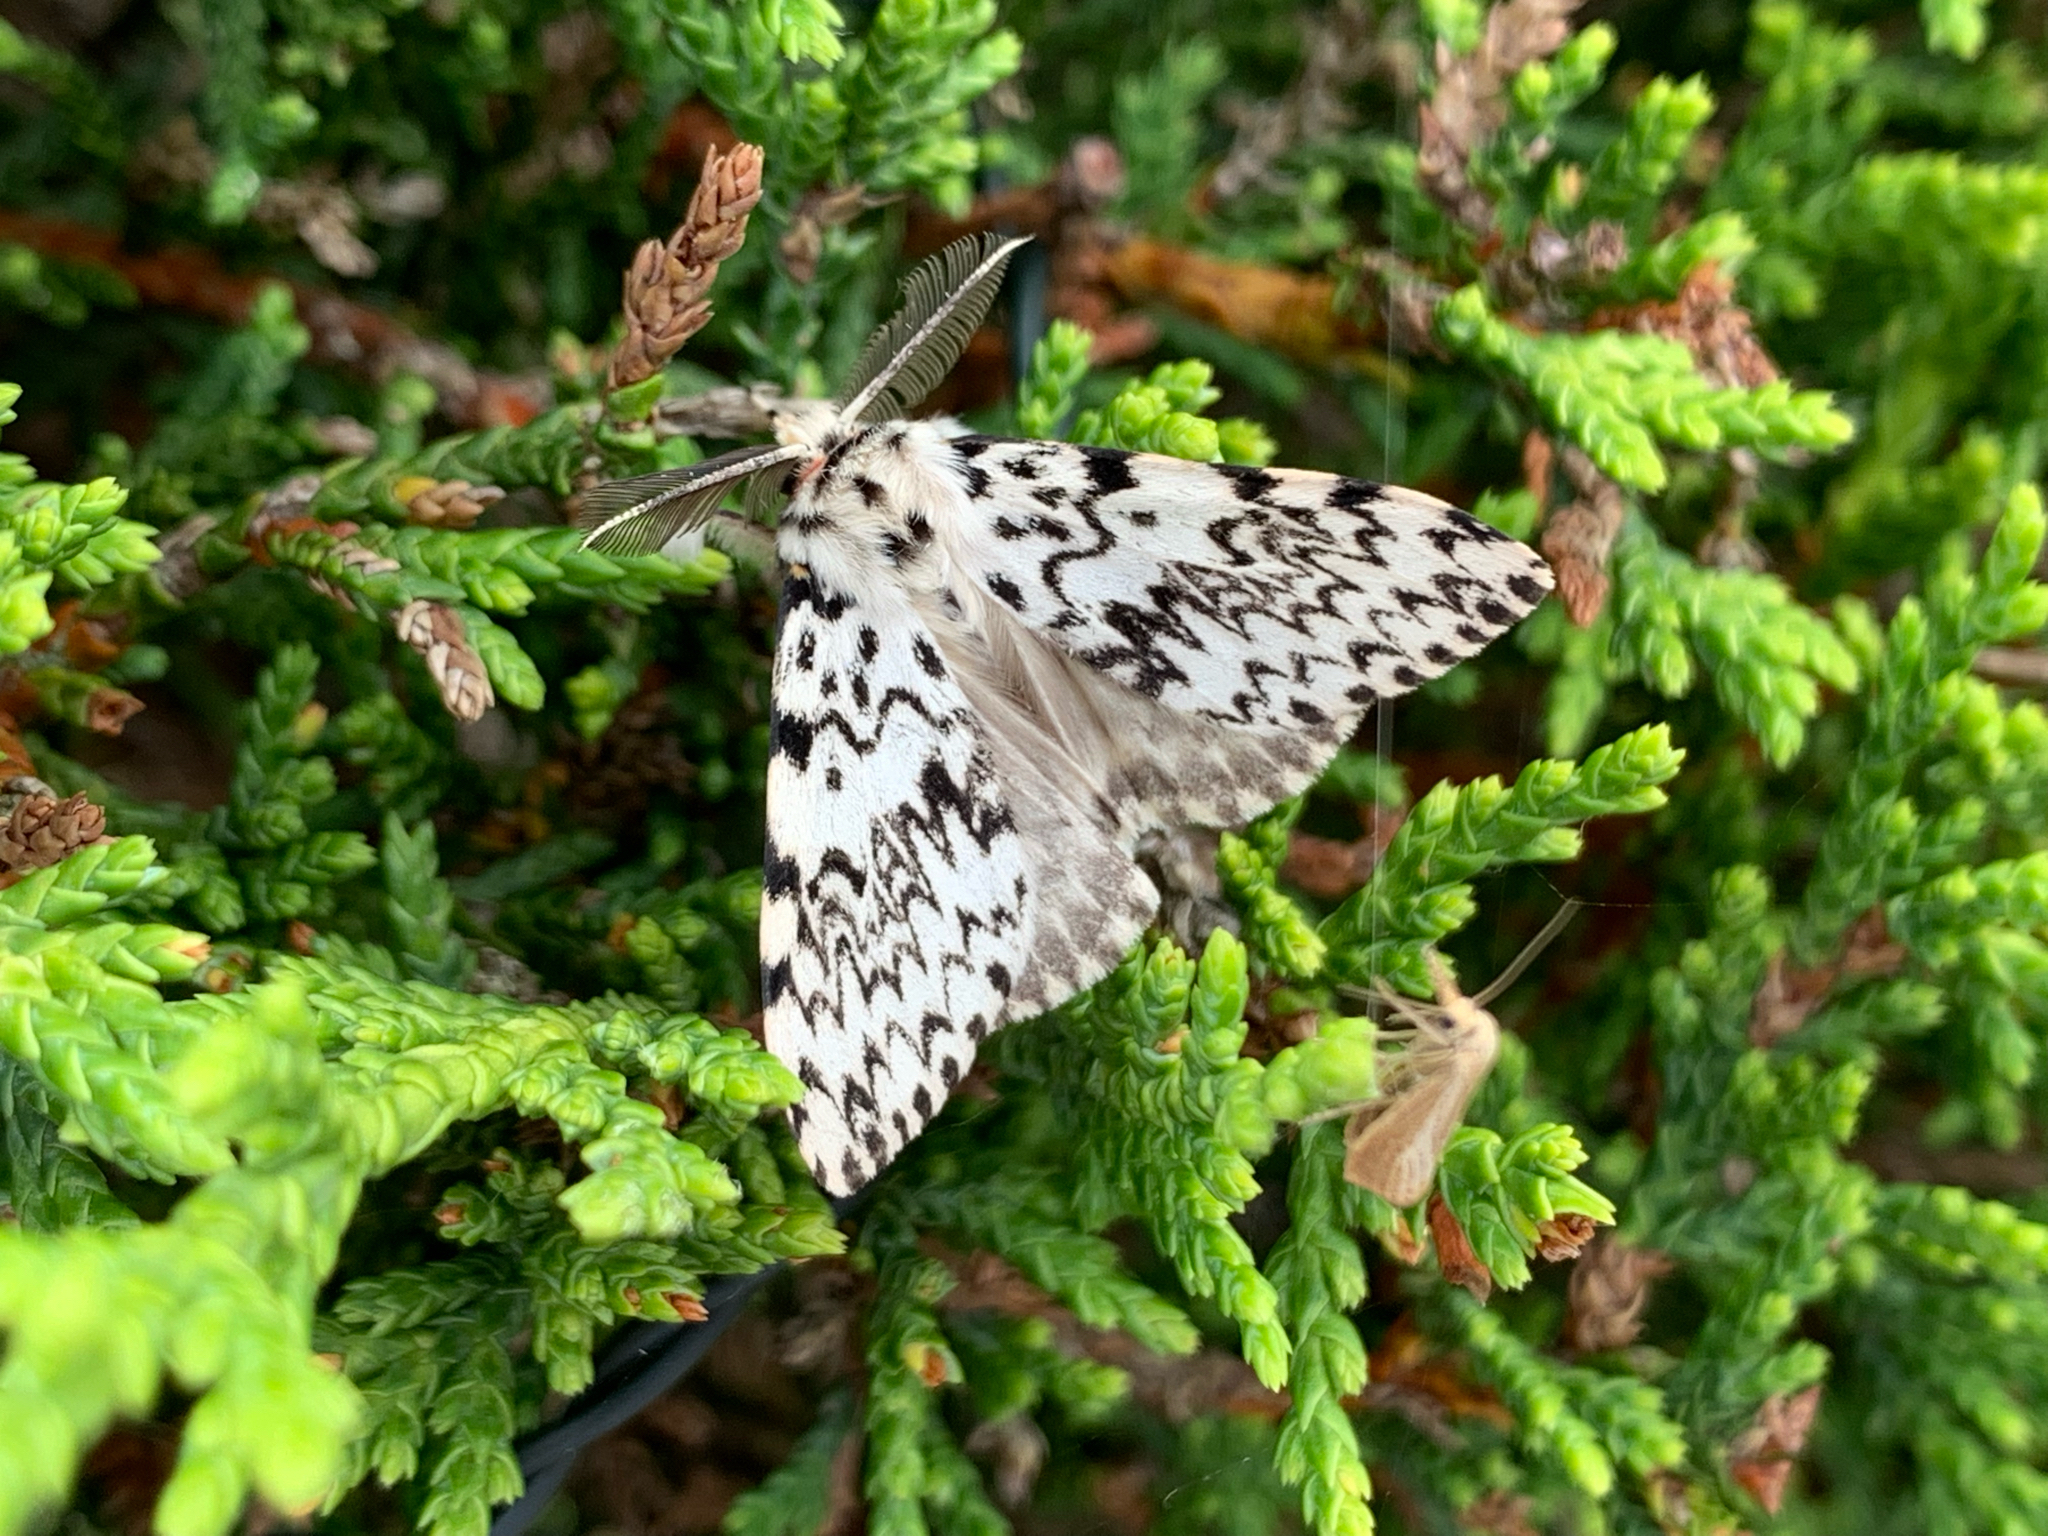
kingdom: Animalia
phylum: Arthropoda
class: Insecta
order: Lepidoptera
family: Erebidae
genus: Lymantria
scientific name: Lymantria monacha
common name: Black arches
